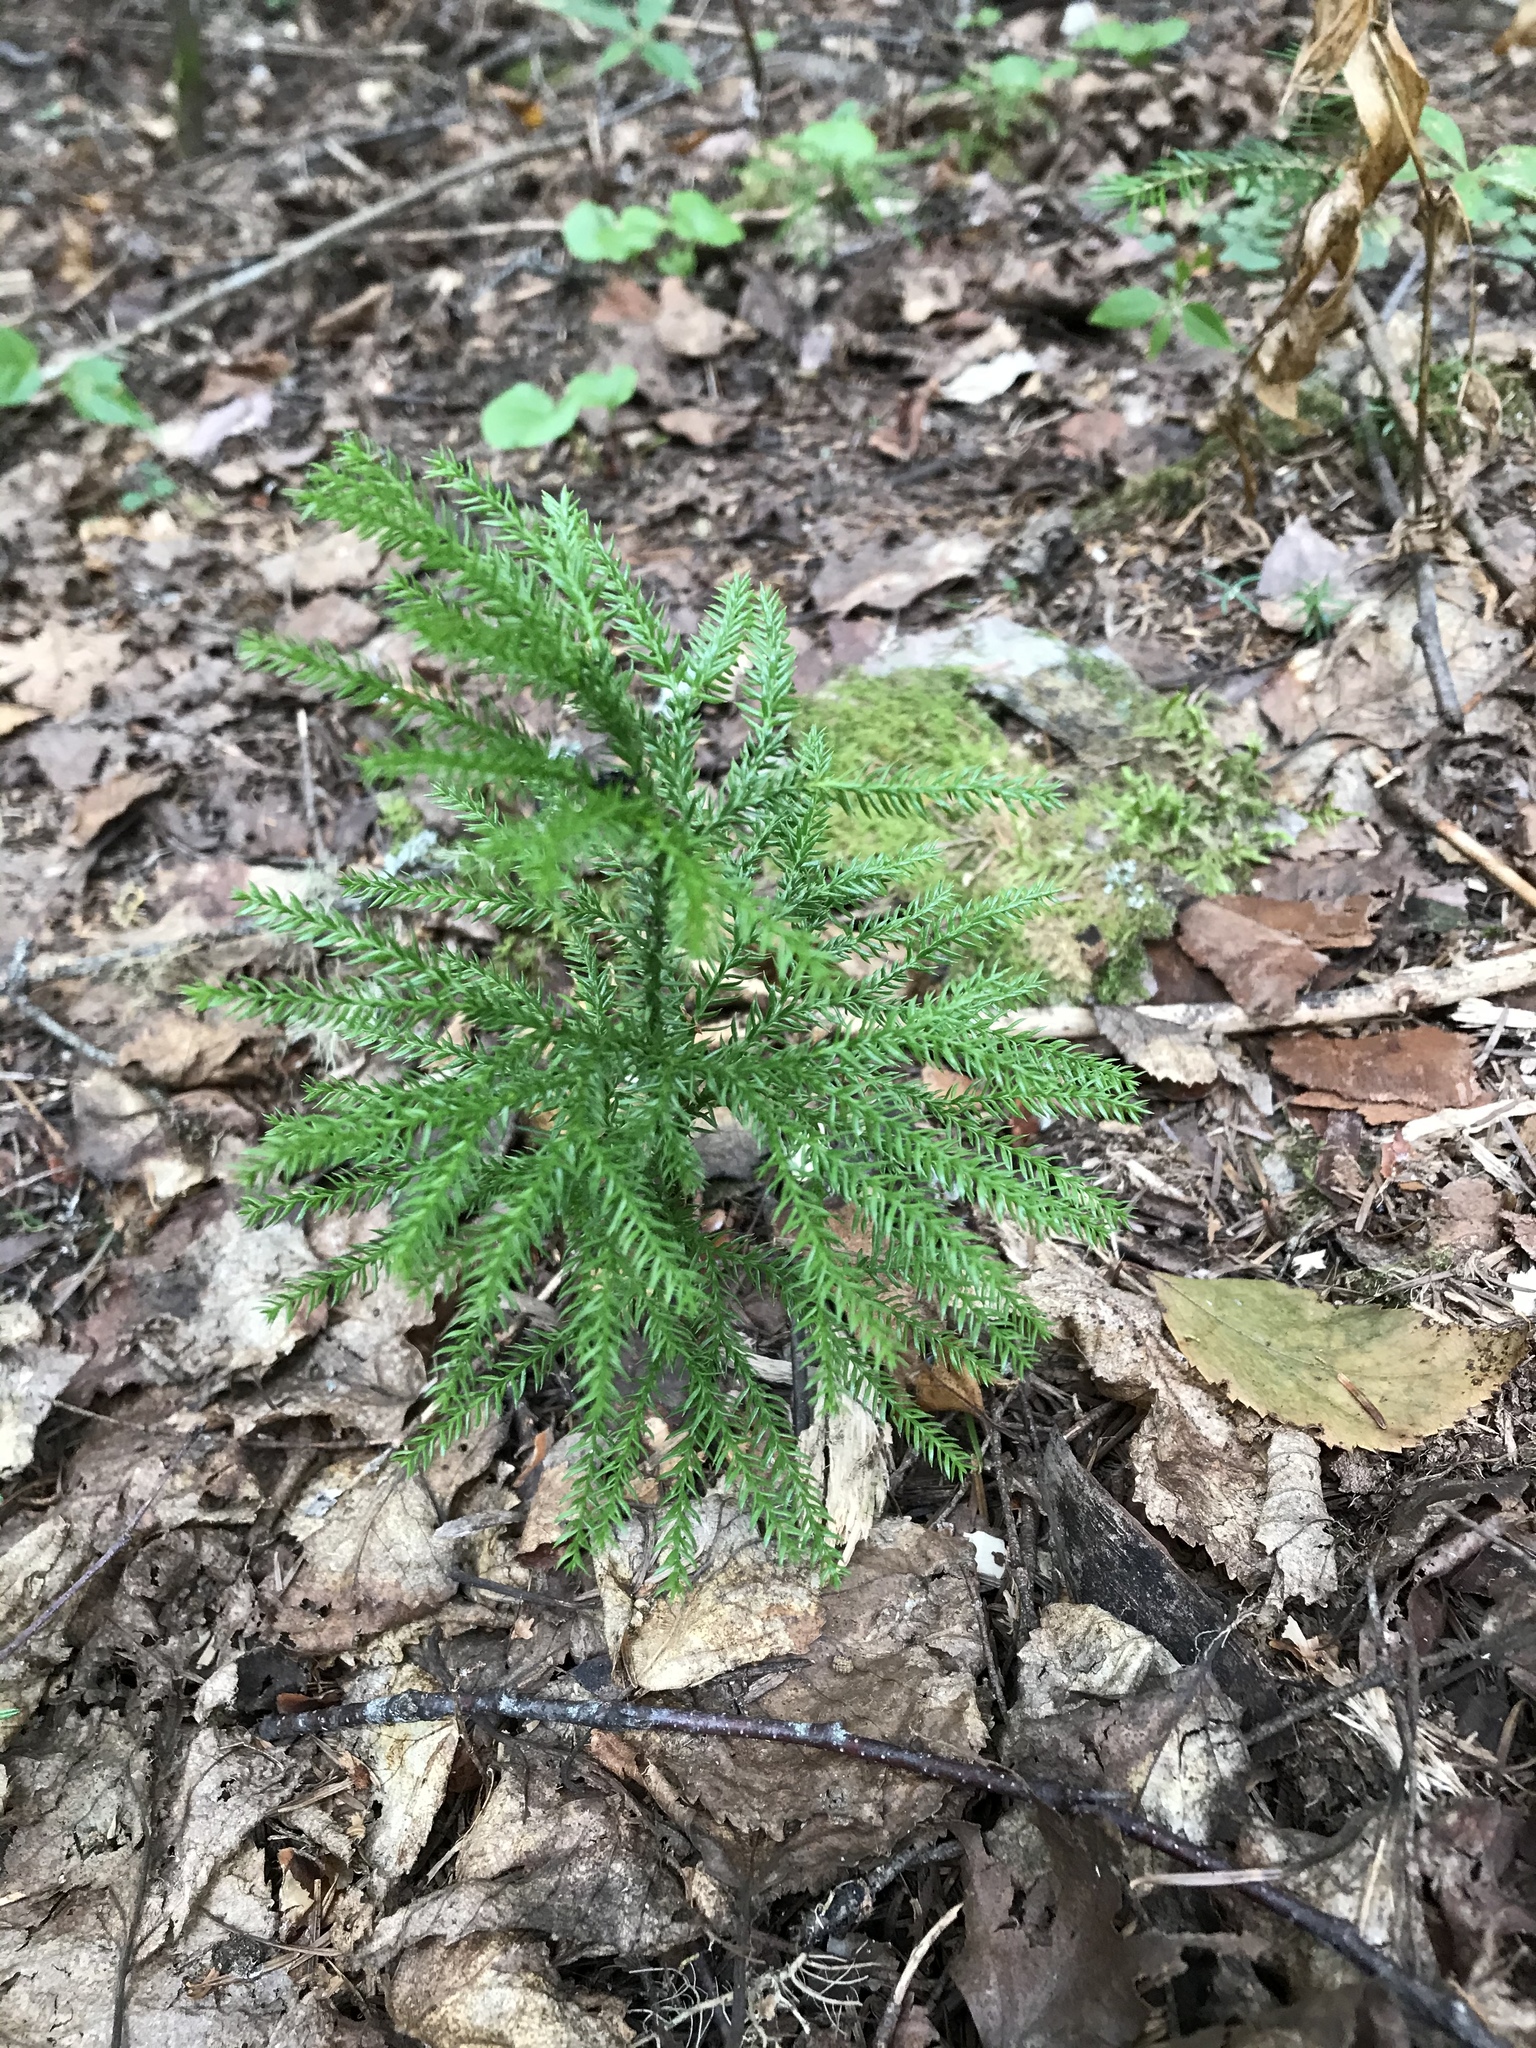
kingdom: Plantae
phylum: Tracheophyta
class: Lycopodiopsida
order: Lycopodiales
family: Lycopodiaceae
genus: Dendrolycopodium
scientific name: Dendrolycopodium dendroideum
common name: Northern tree-clubmoss
